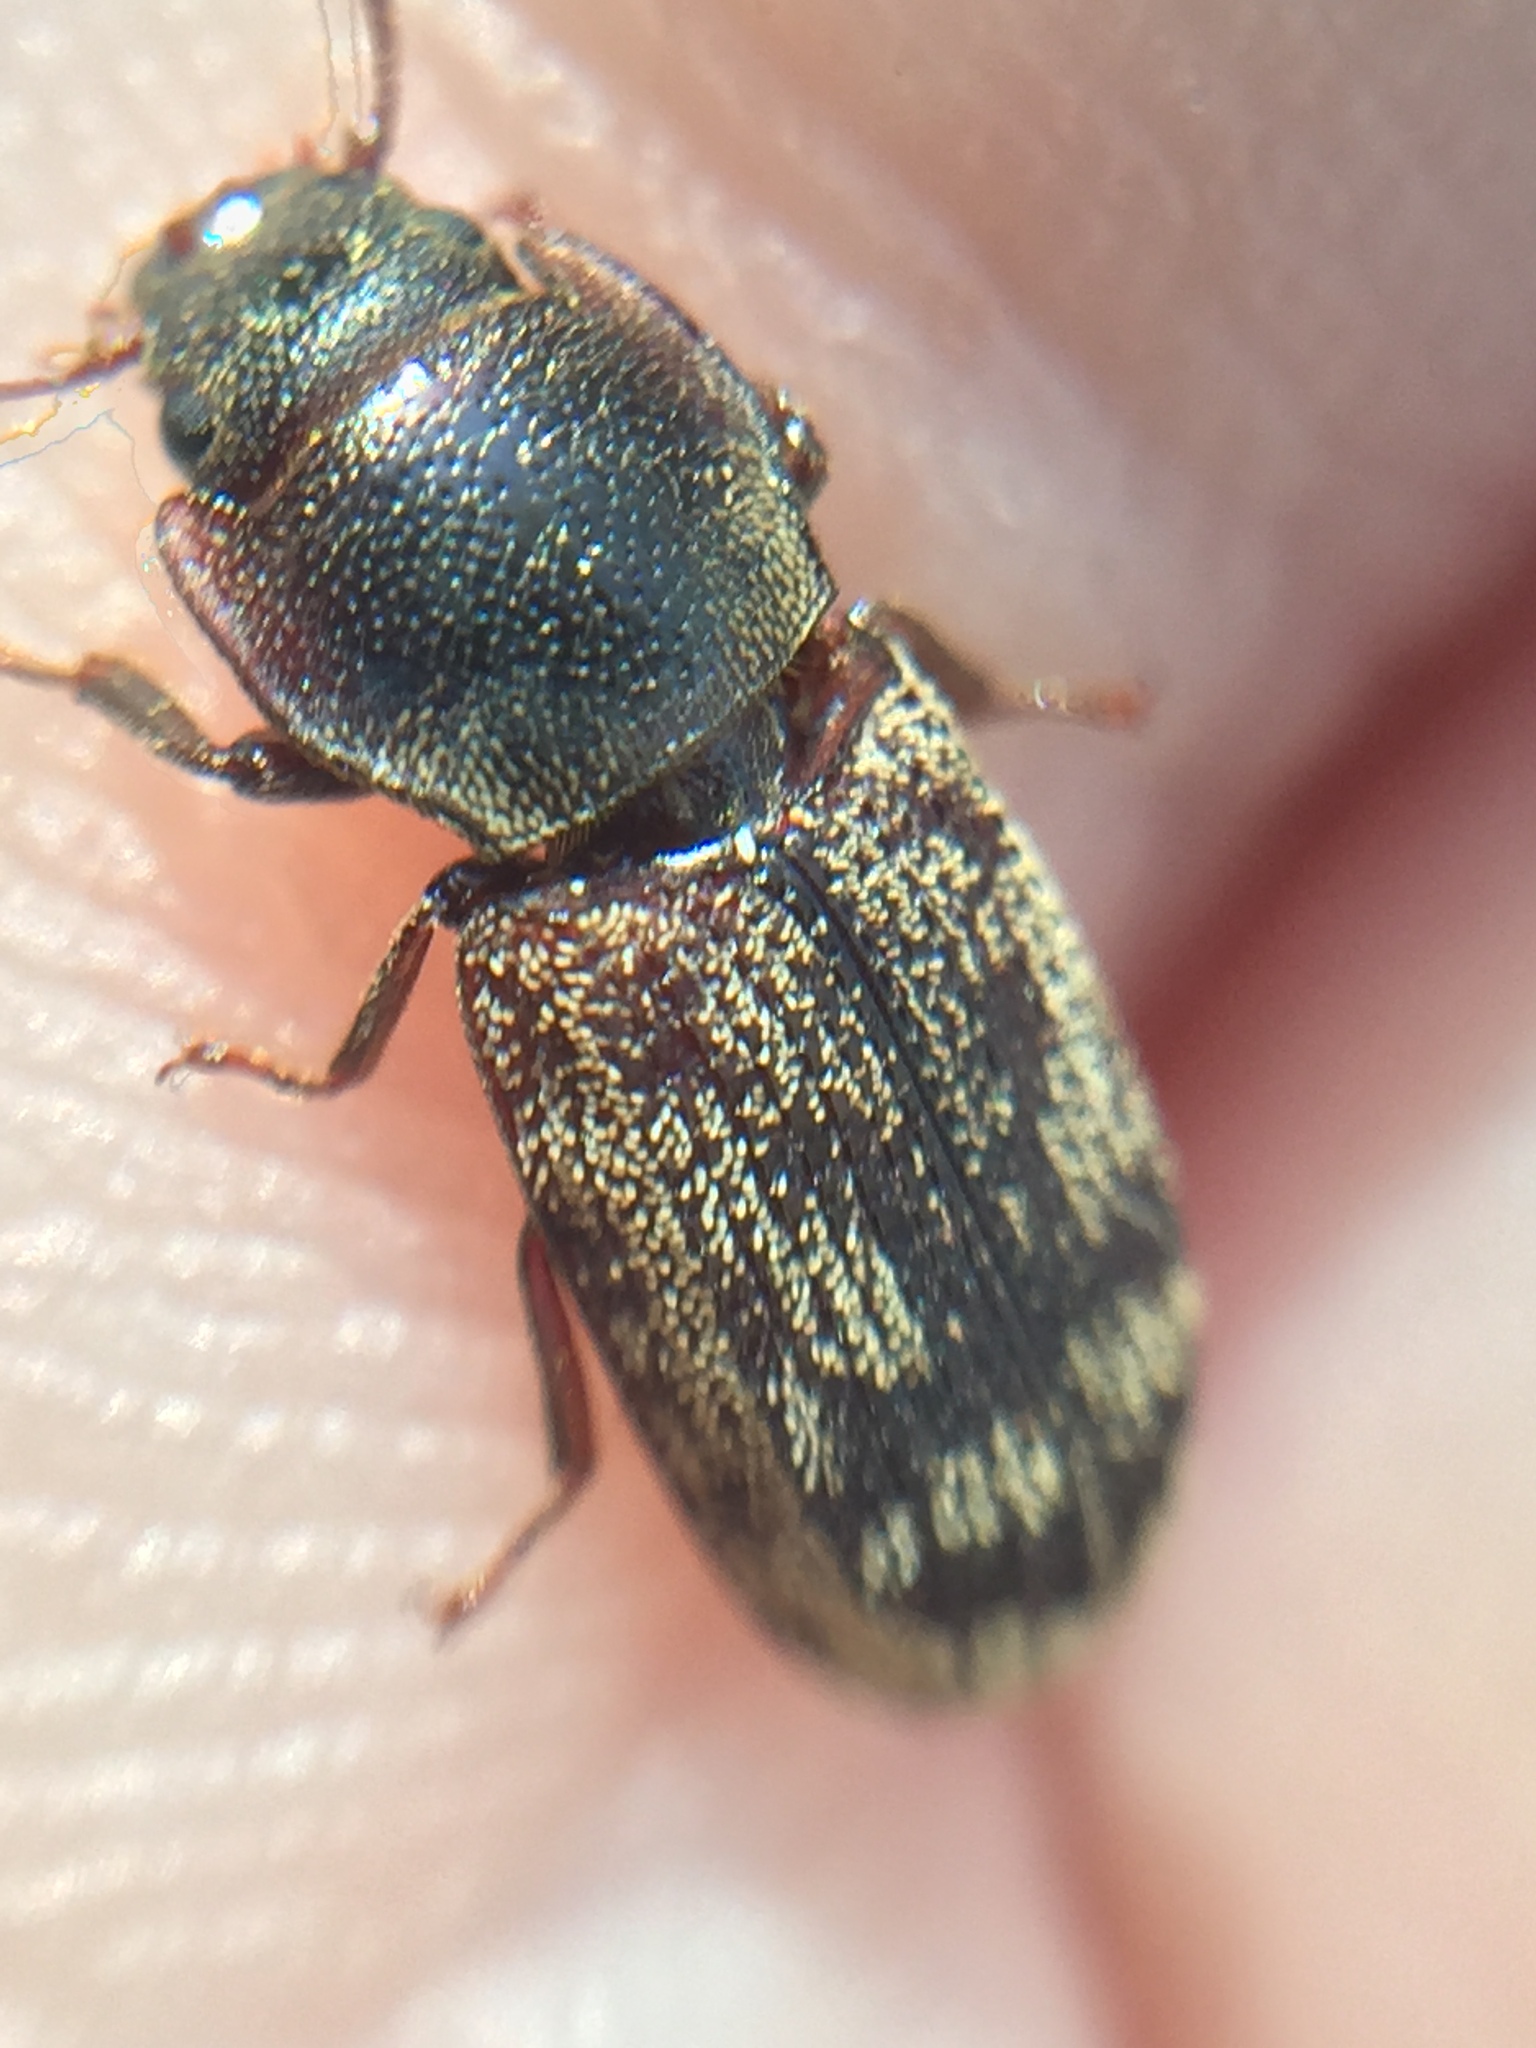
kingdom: Animalia
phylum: Arthropoda
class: Insecta
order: Coleoptera
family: Trogossitidae
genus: Phanodesta
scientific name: Phanodesta
